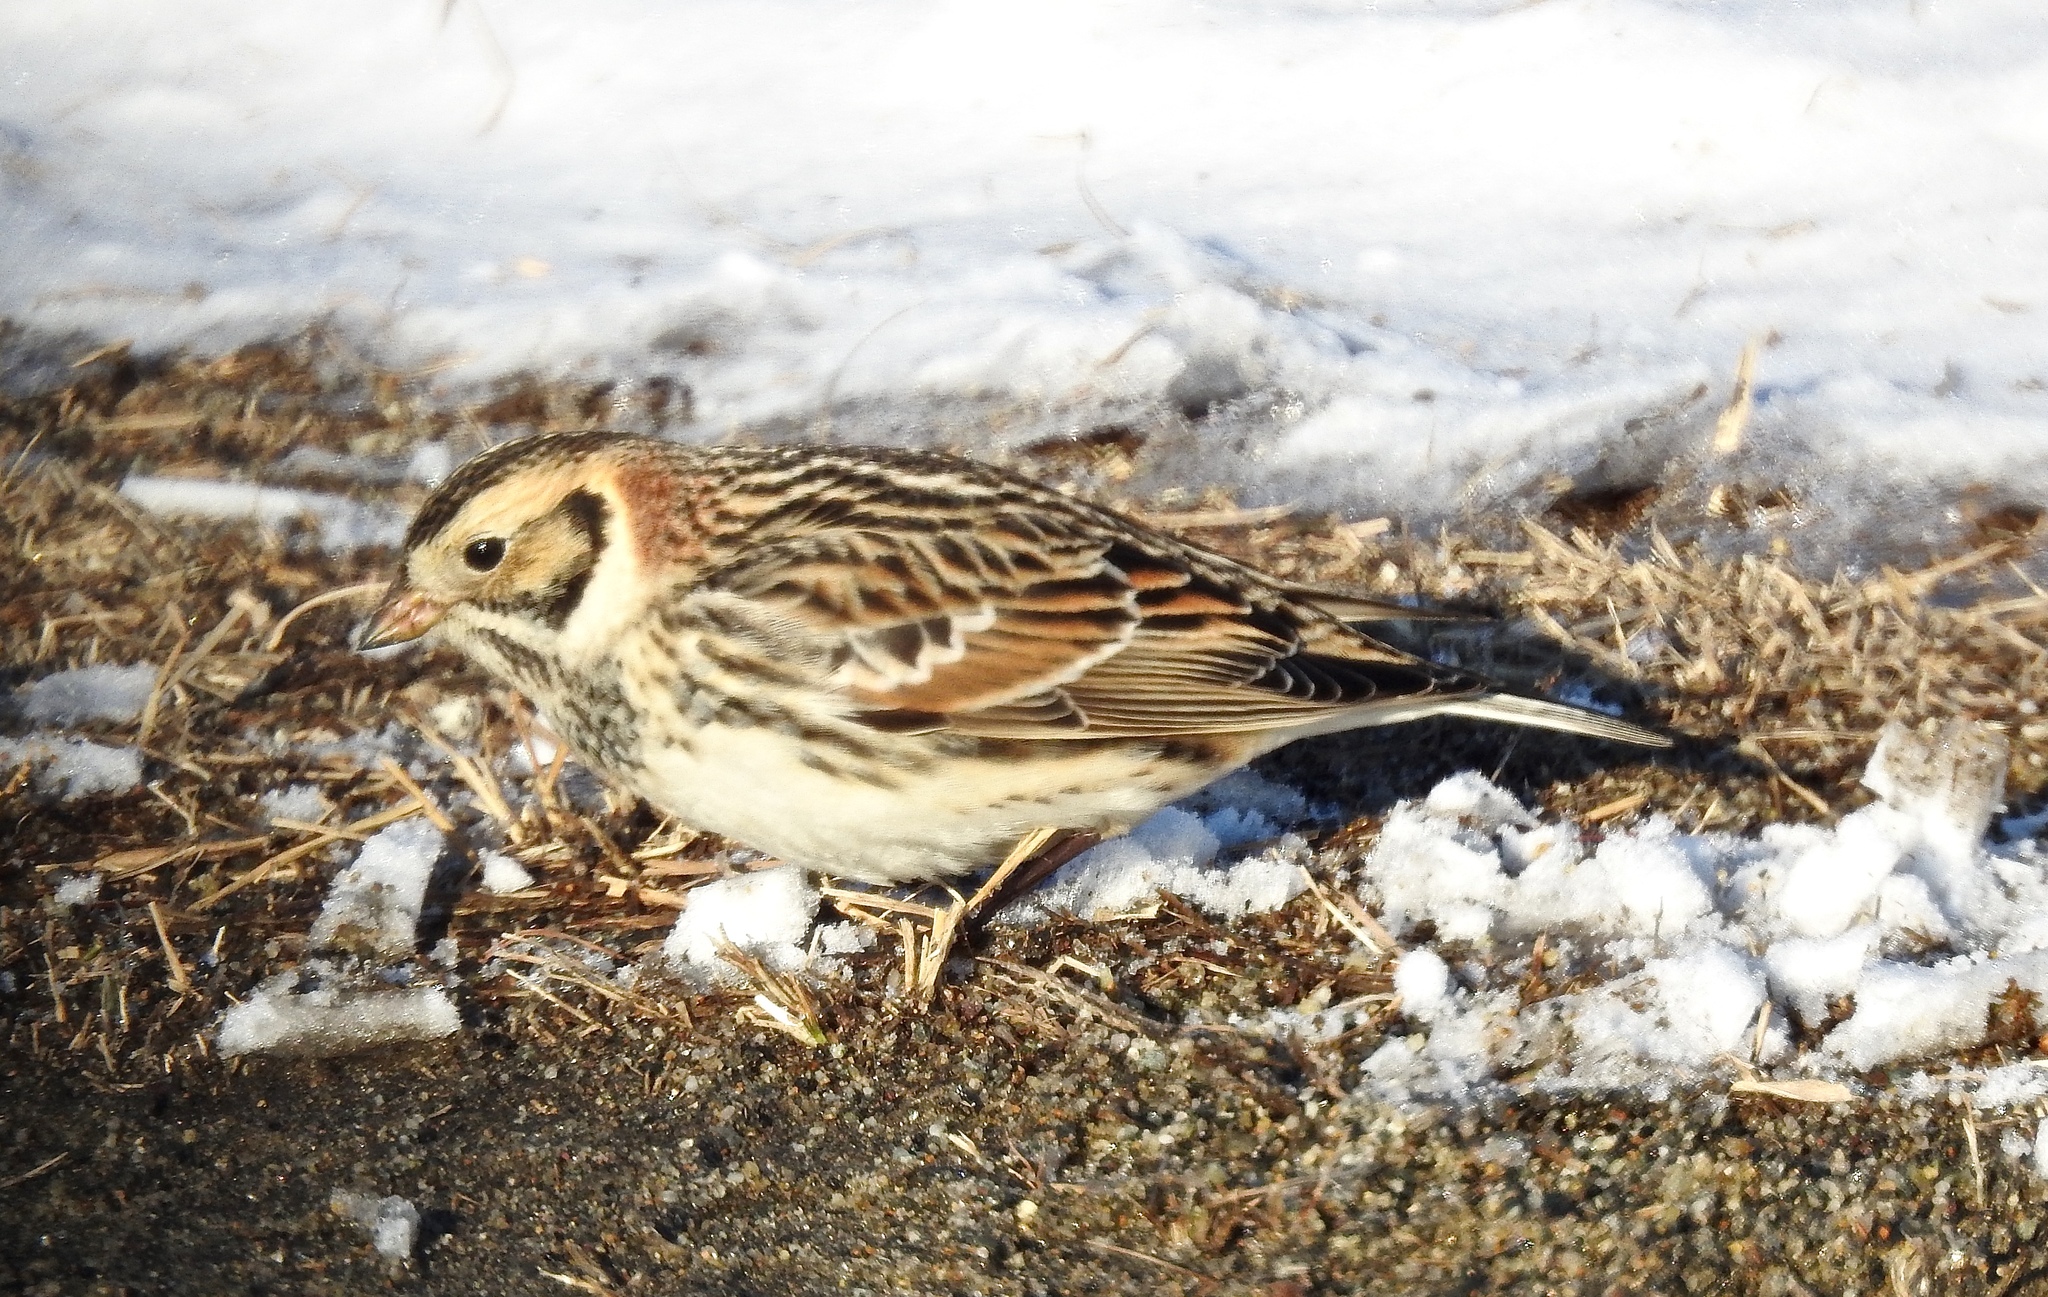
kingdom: Animalia
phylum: Chordata
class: Aves
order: Passeriformes
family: Calcariidae
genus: Calcarius
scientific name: Calcarius lapponicus
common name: Lapland longspur
